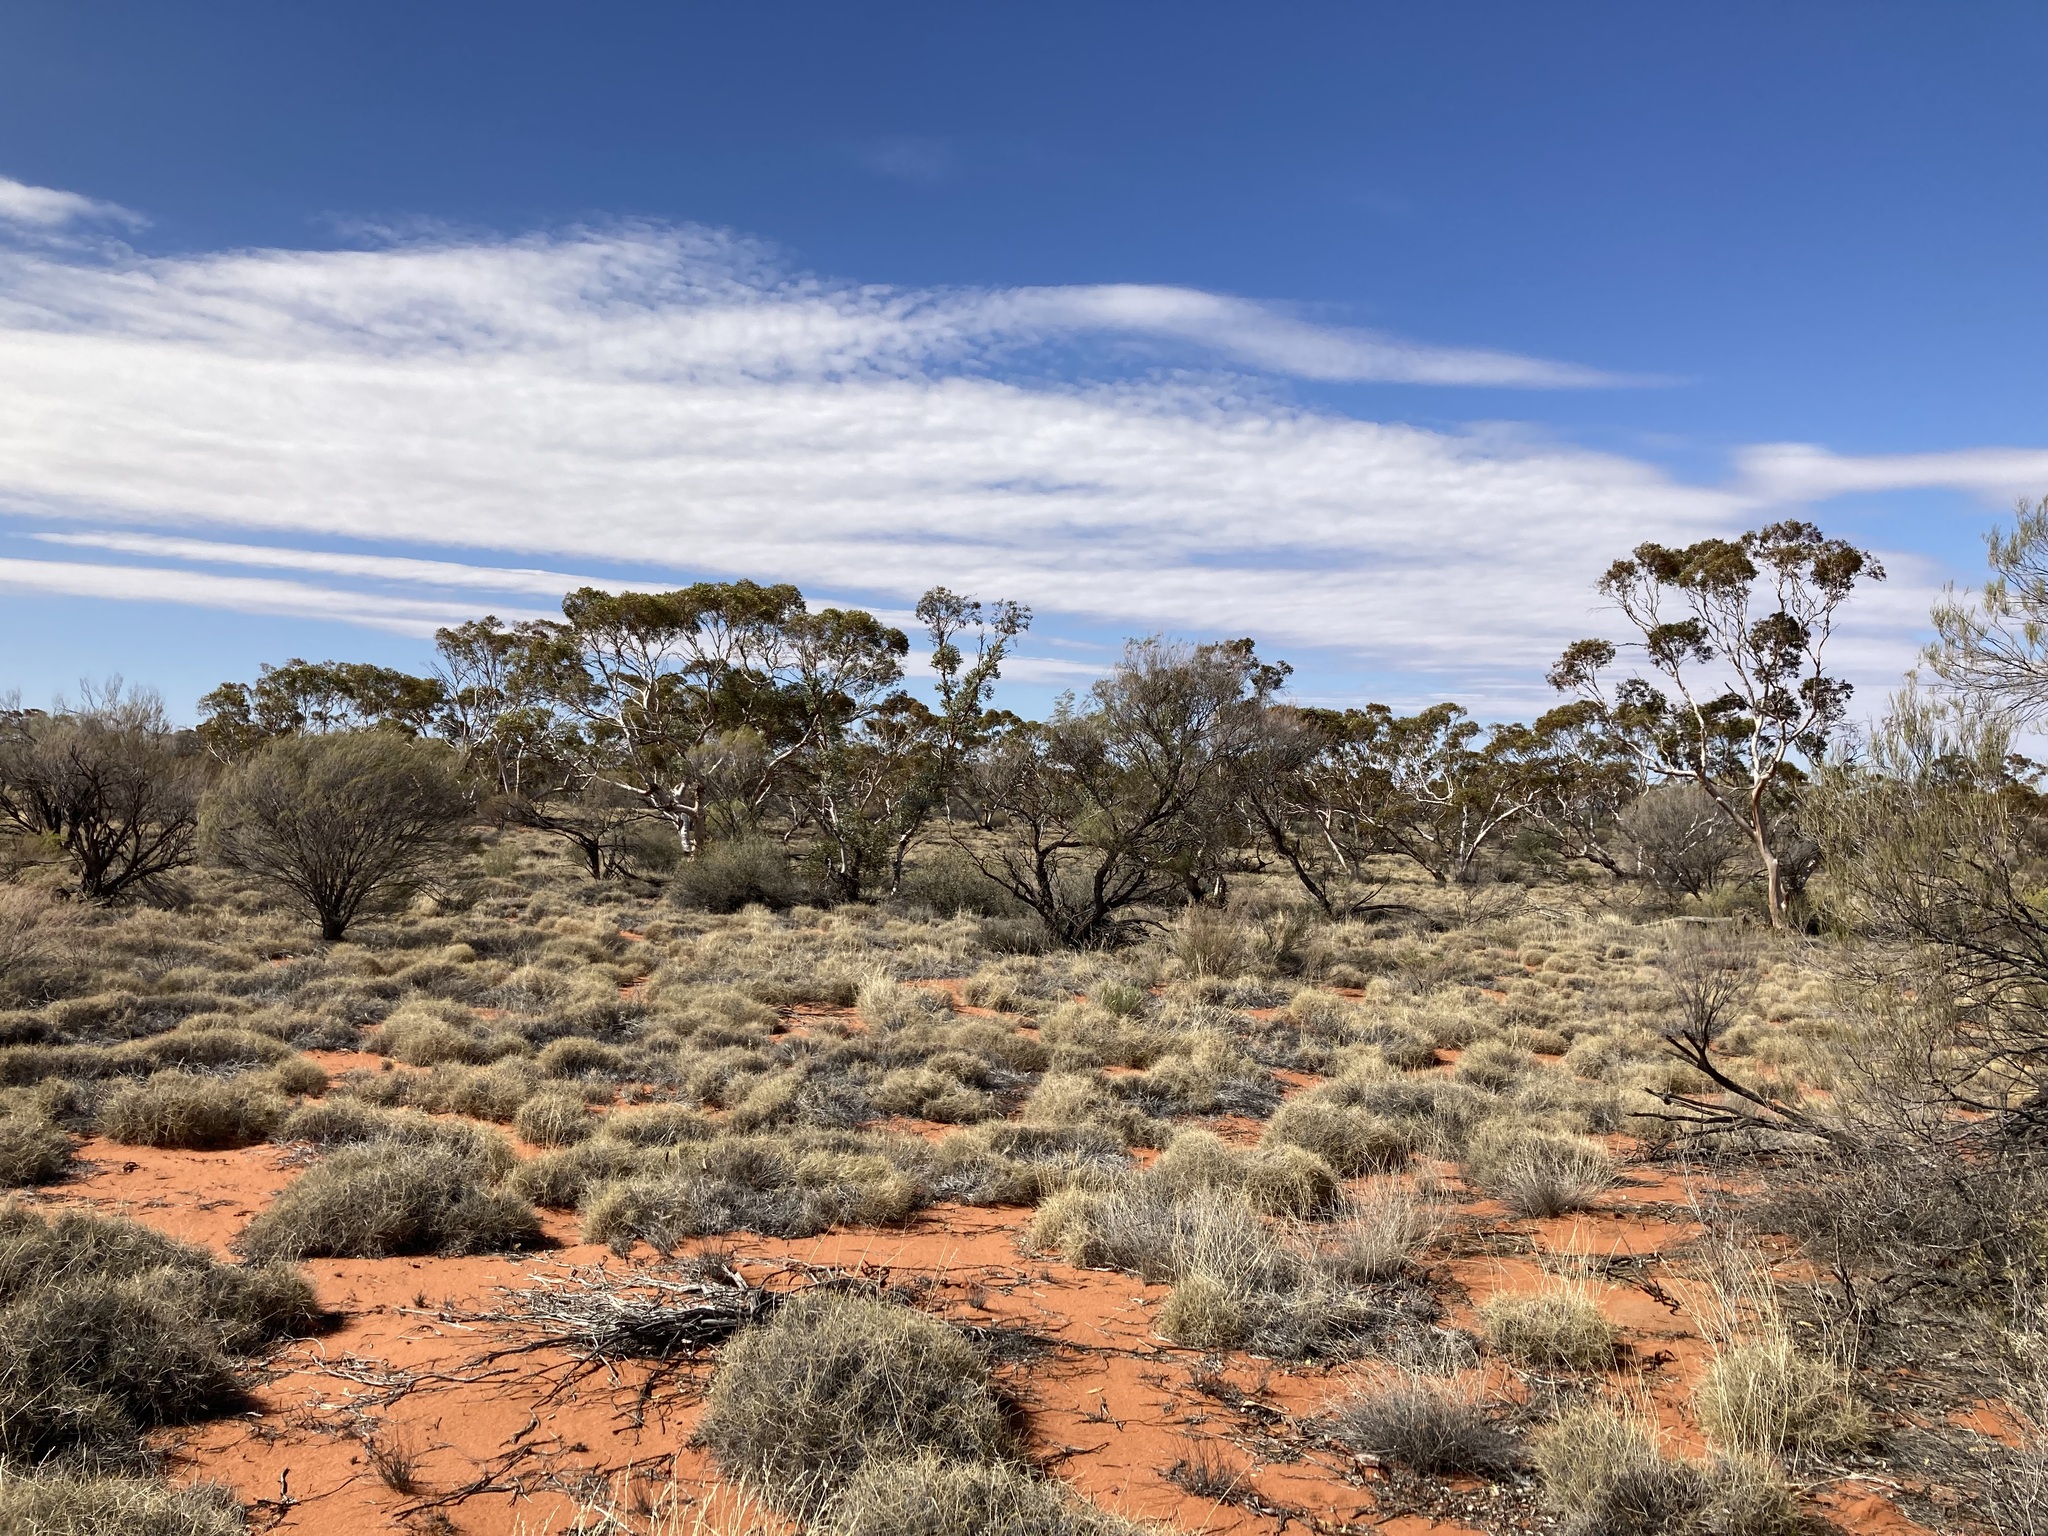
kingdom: Plantae
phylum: Tracheophyta
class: Magnoliopsida
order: Myrtales
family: Myrtaceae
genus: Eucalyptus
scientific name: Eucalyptus ecdysiastes
